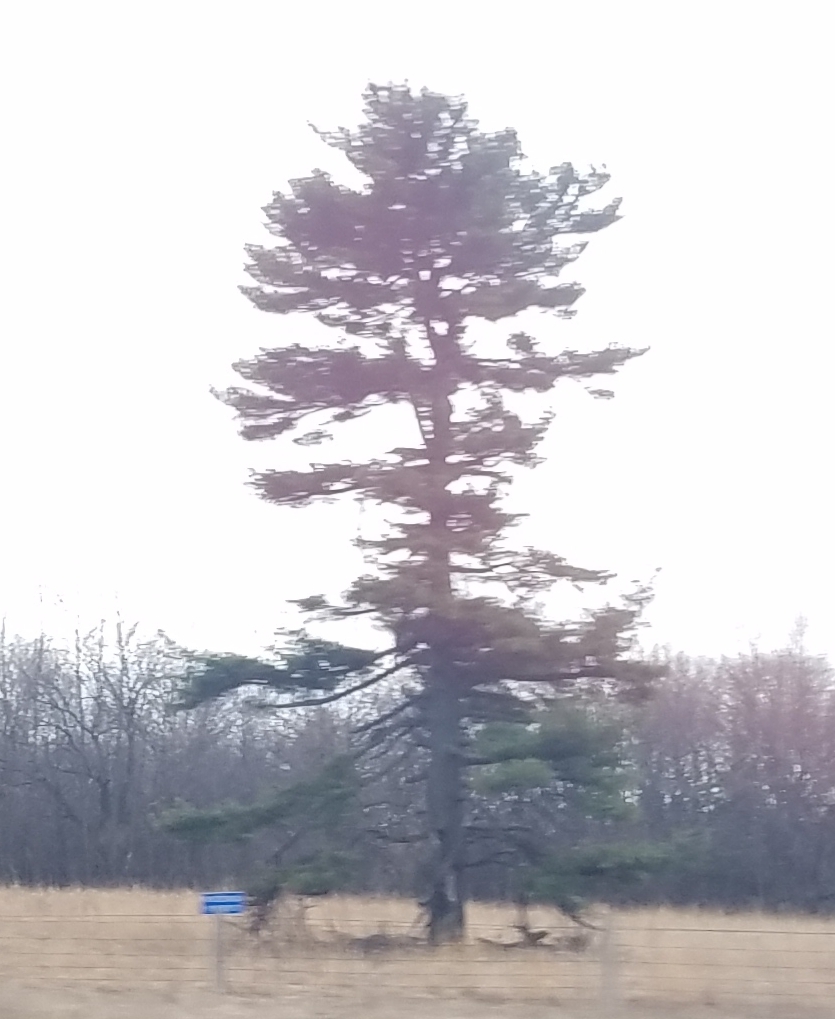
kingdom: Plantae
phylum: Tracheophyta
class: Pinopsida
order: Pinales
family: Pinaceae
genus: Pinus
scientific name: Pinus strobus
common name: Weymouth pine
